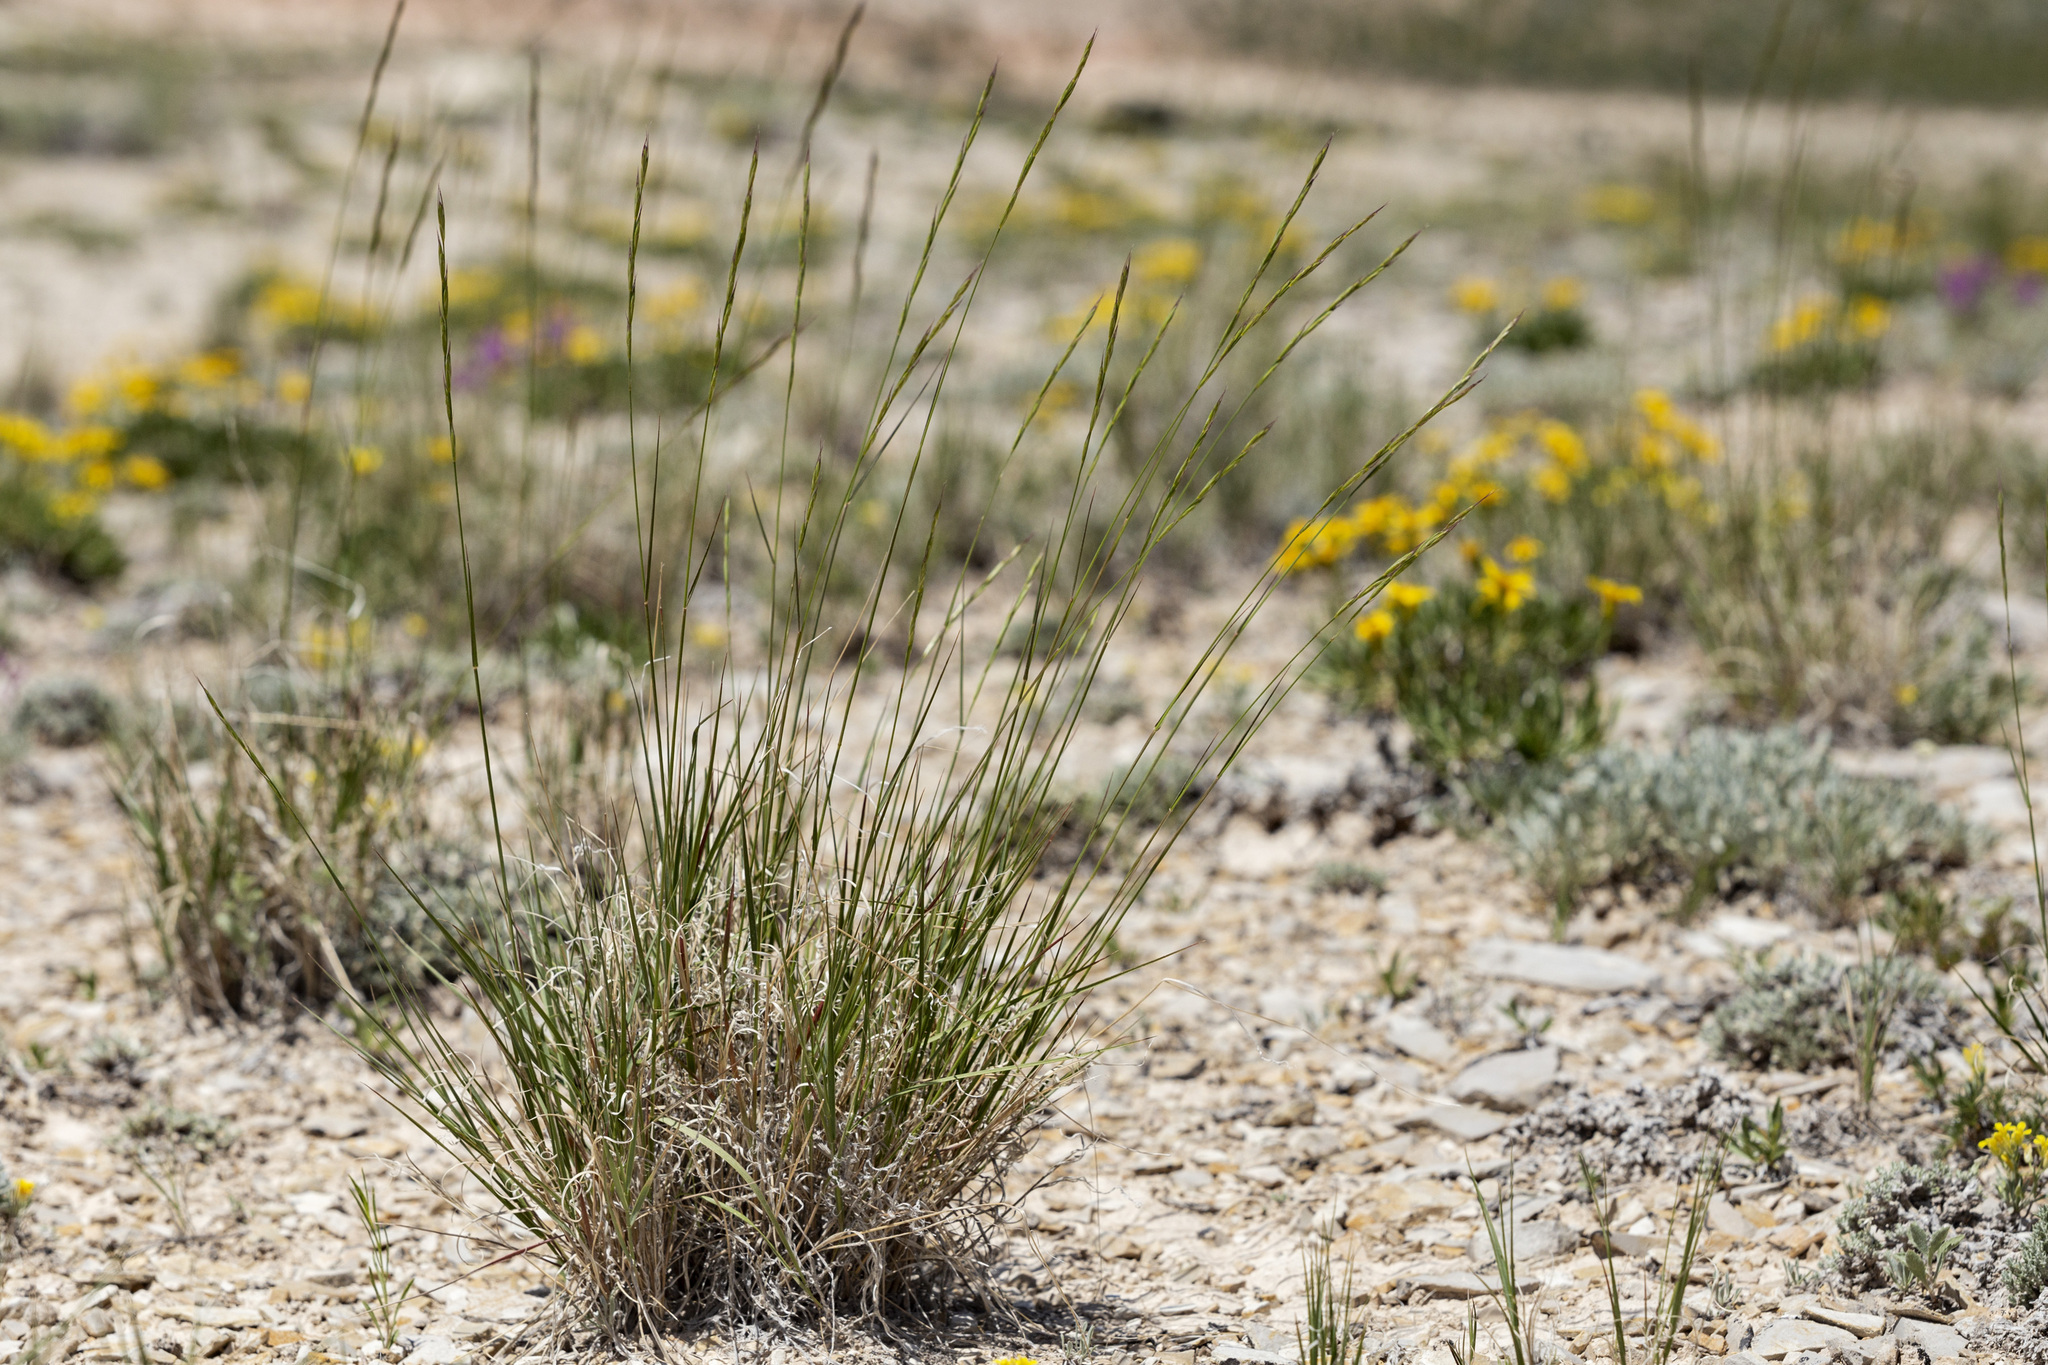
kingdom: Plantae
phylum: Tracheophyta
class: Liliopsida
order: Poales
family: Poaceae
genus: Pseudoroegneria
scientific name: Pseudoroegneria spicata
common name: Bluebunch wheatgrass
